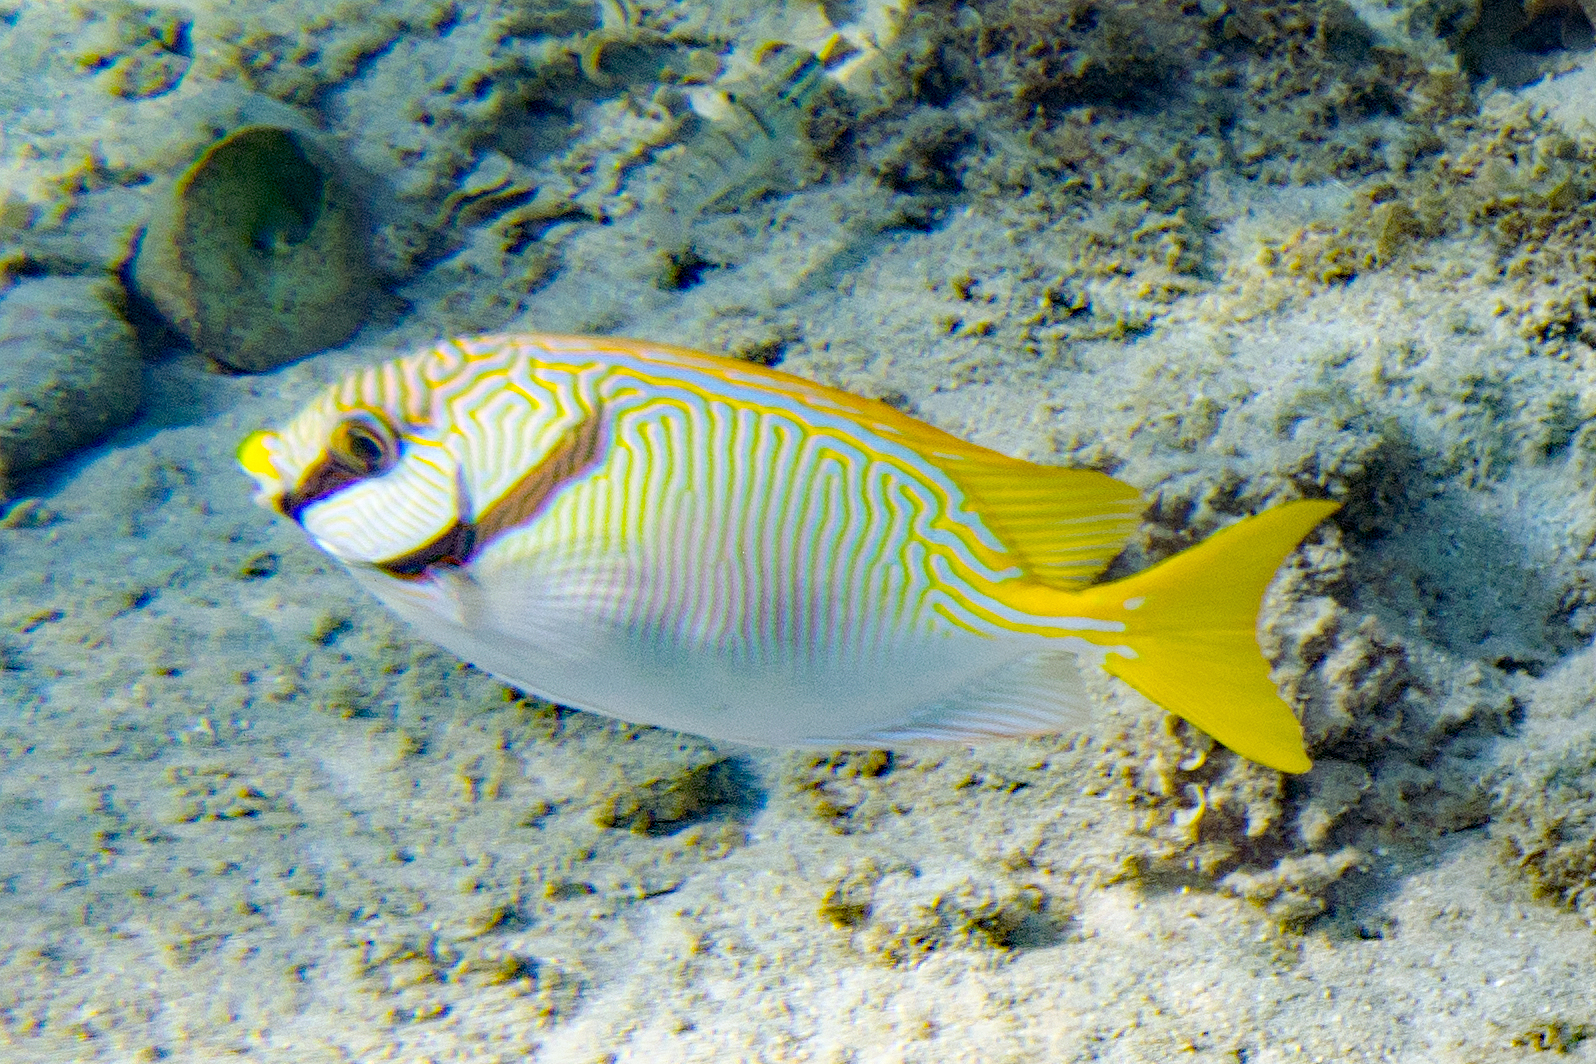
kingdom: Animalia
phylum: Chordata
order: Perciformes
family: Siganidae
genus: Siganus
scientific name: Siganus doliatus
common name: Barred spinefoot
